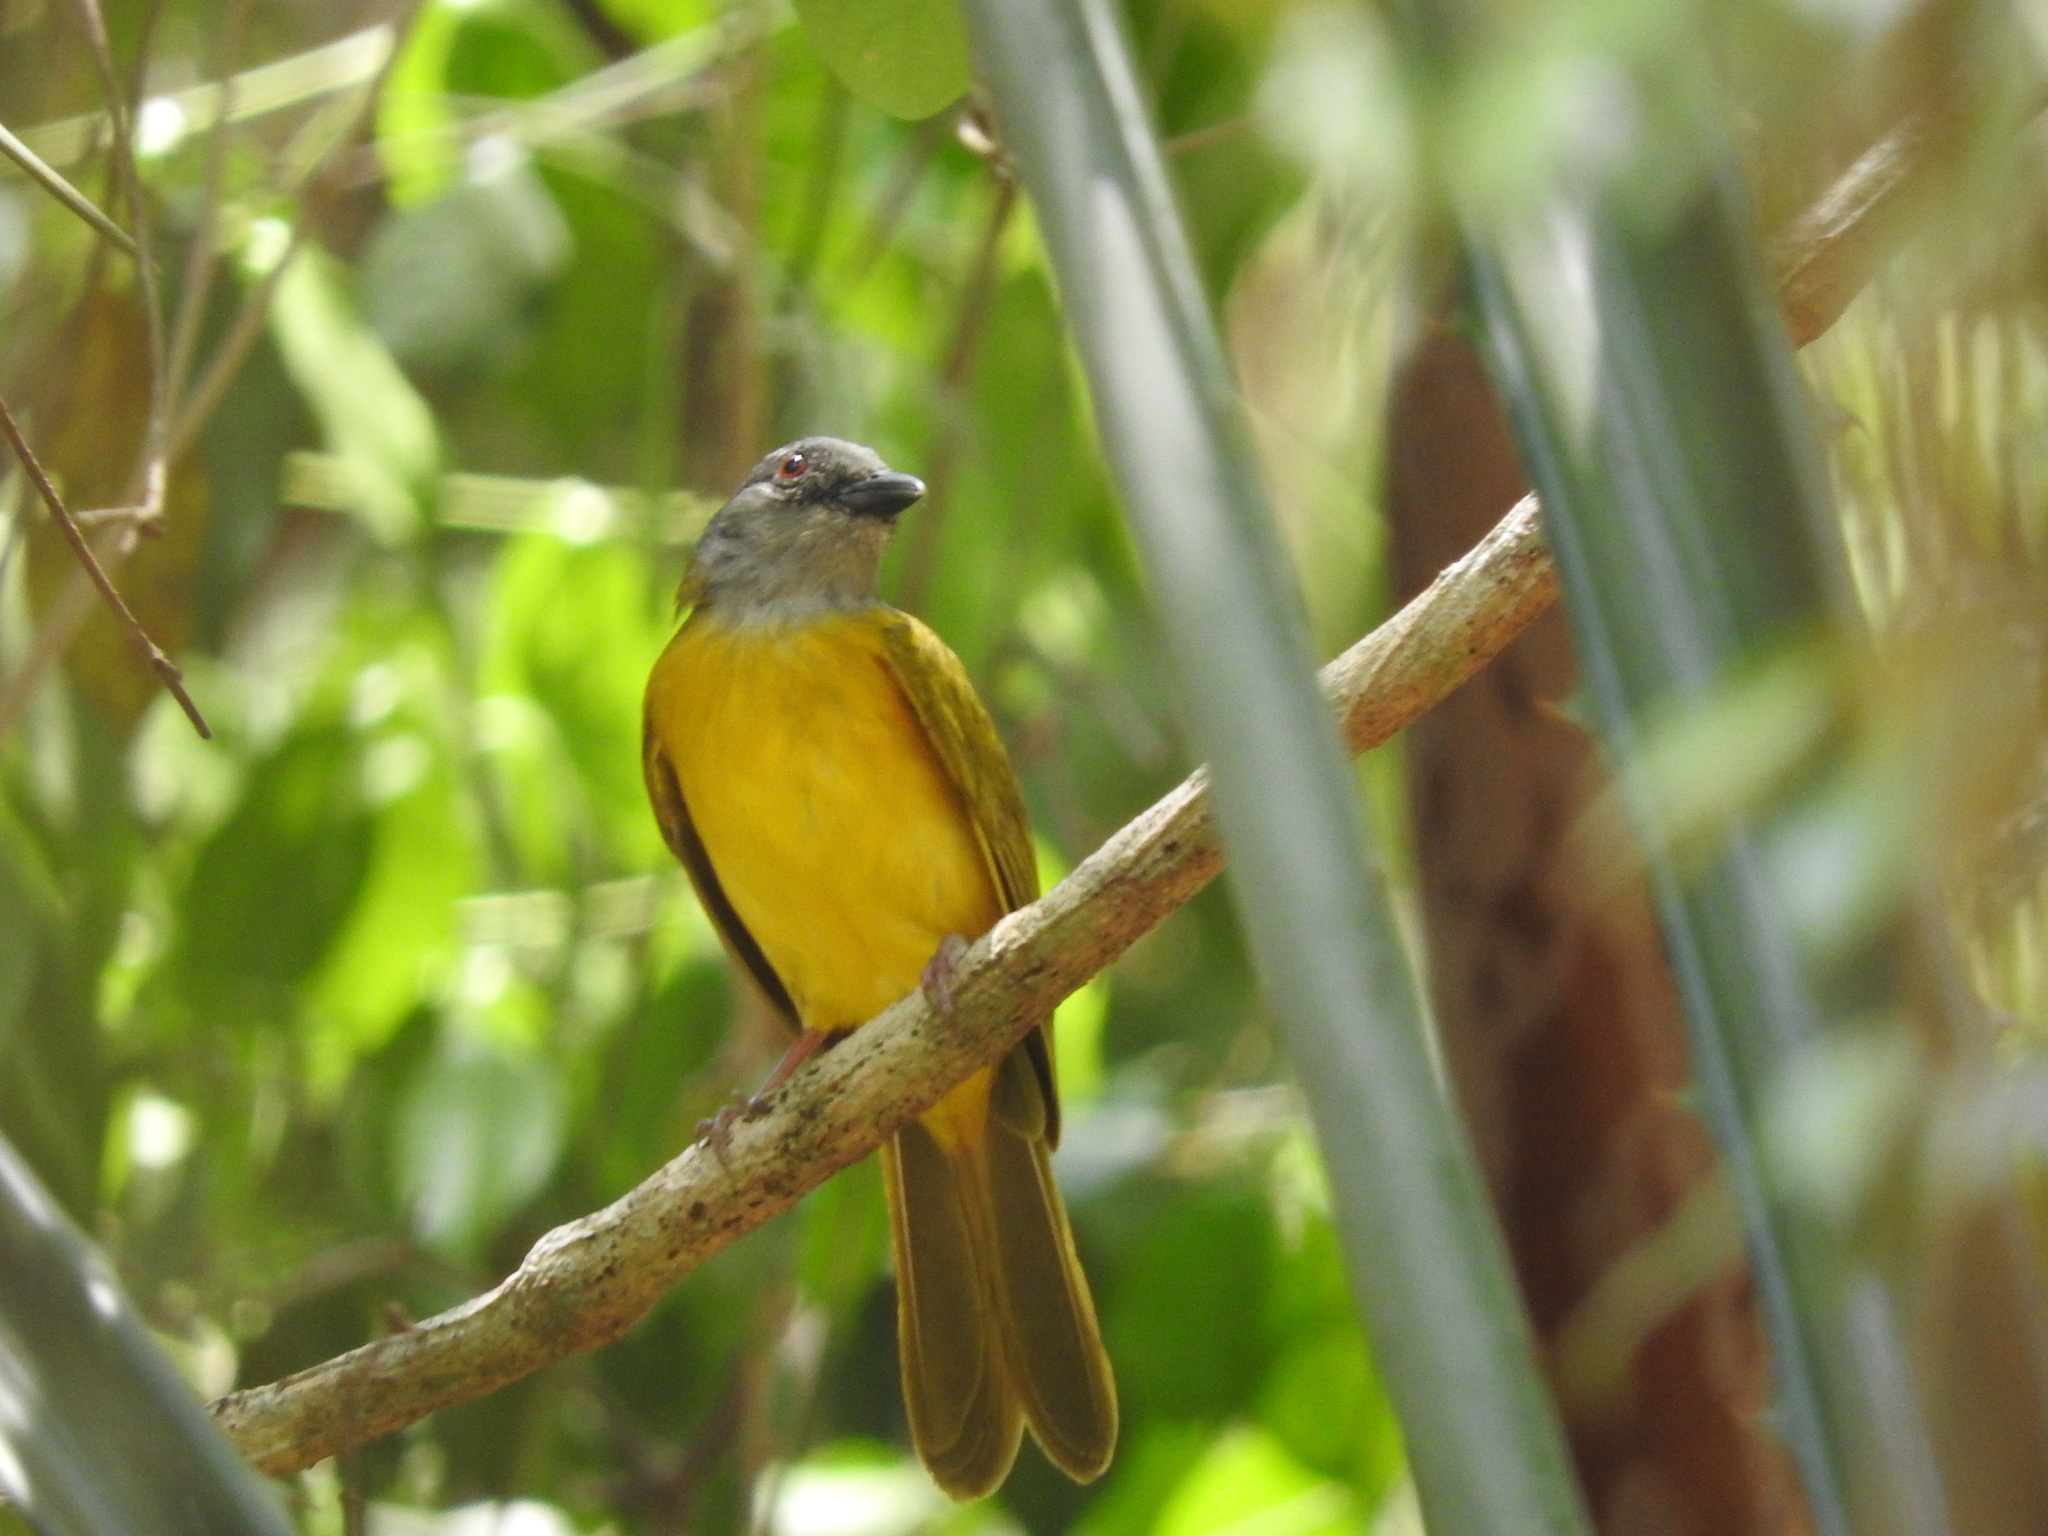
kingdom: Animalia
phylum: Chordata
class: Aves
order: Passeriformes
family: Thraupidae
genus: Eucometis
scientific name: Eucometis penicillata
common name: Grey-headed tanager
